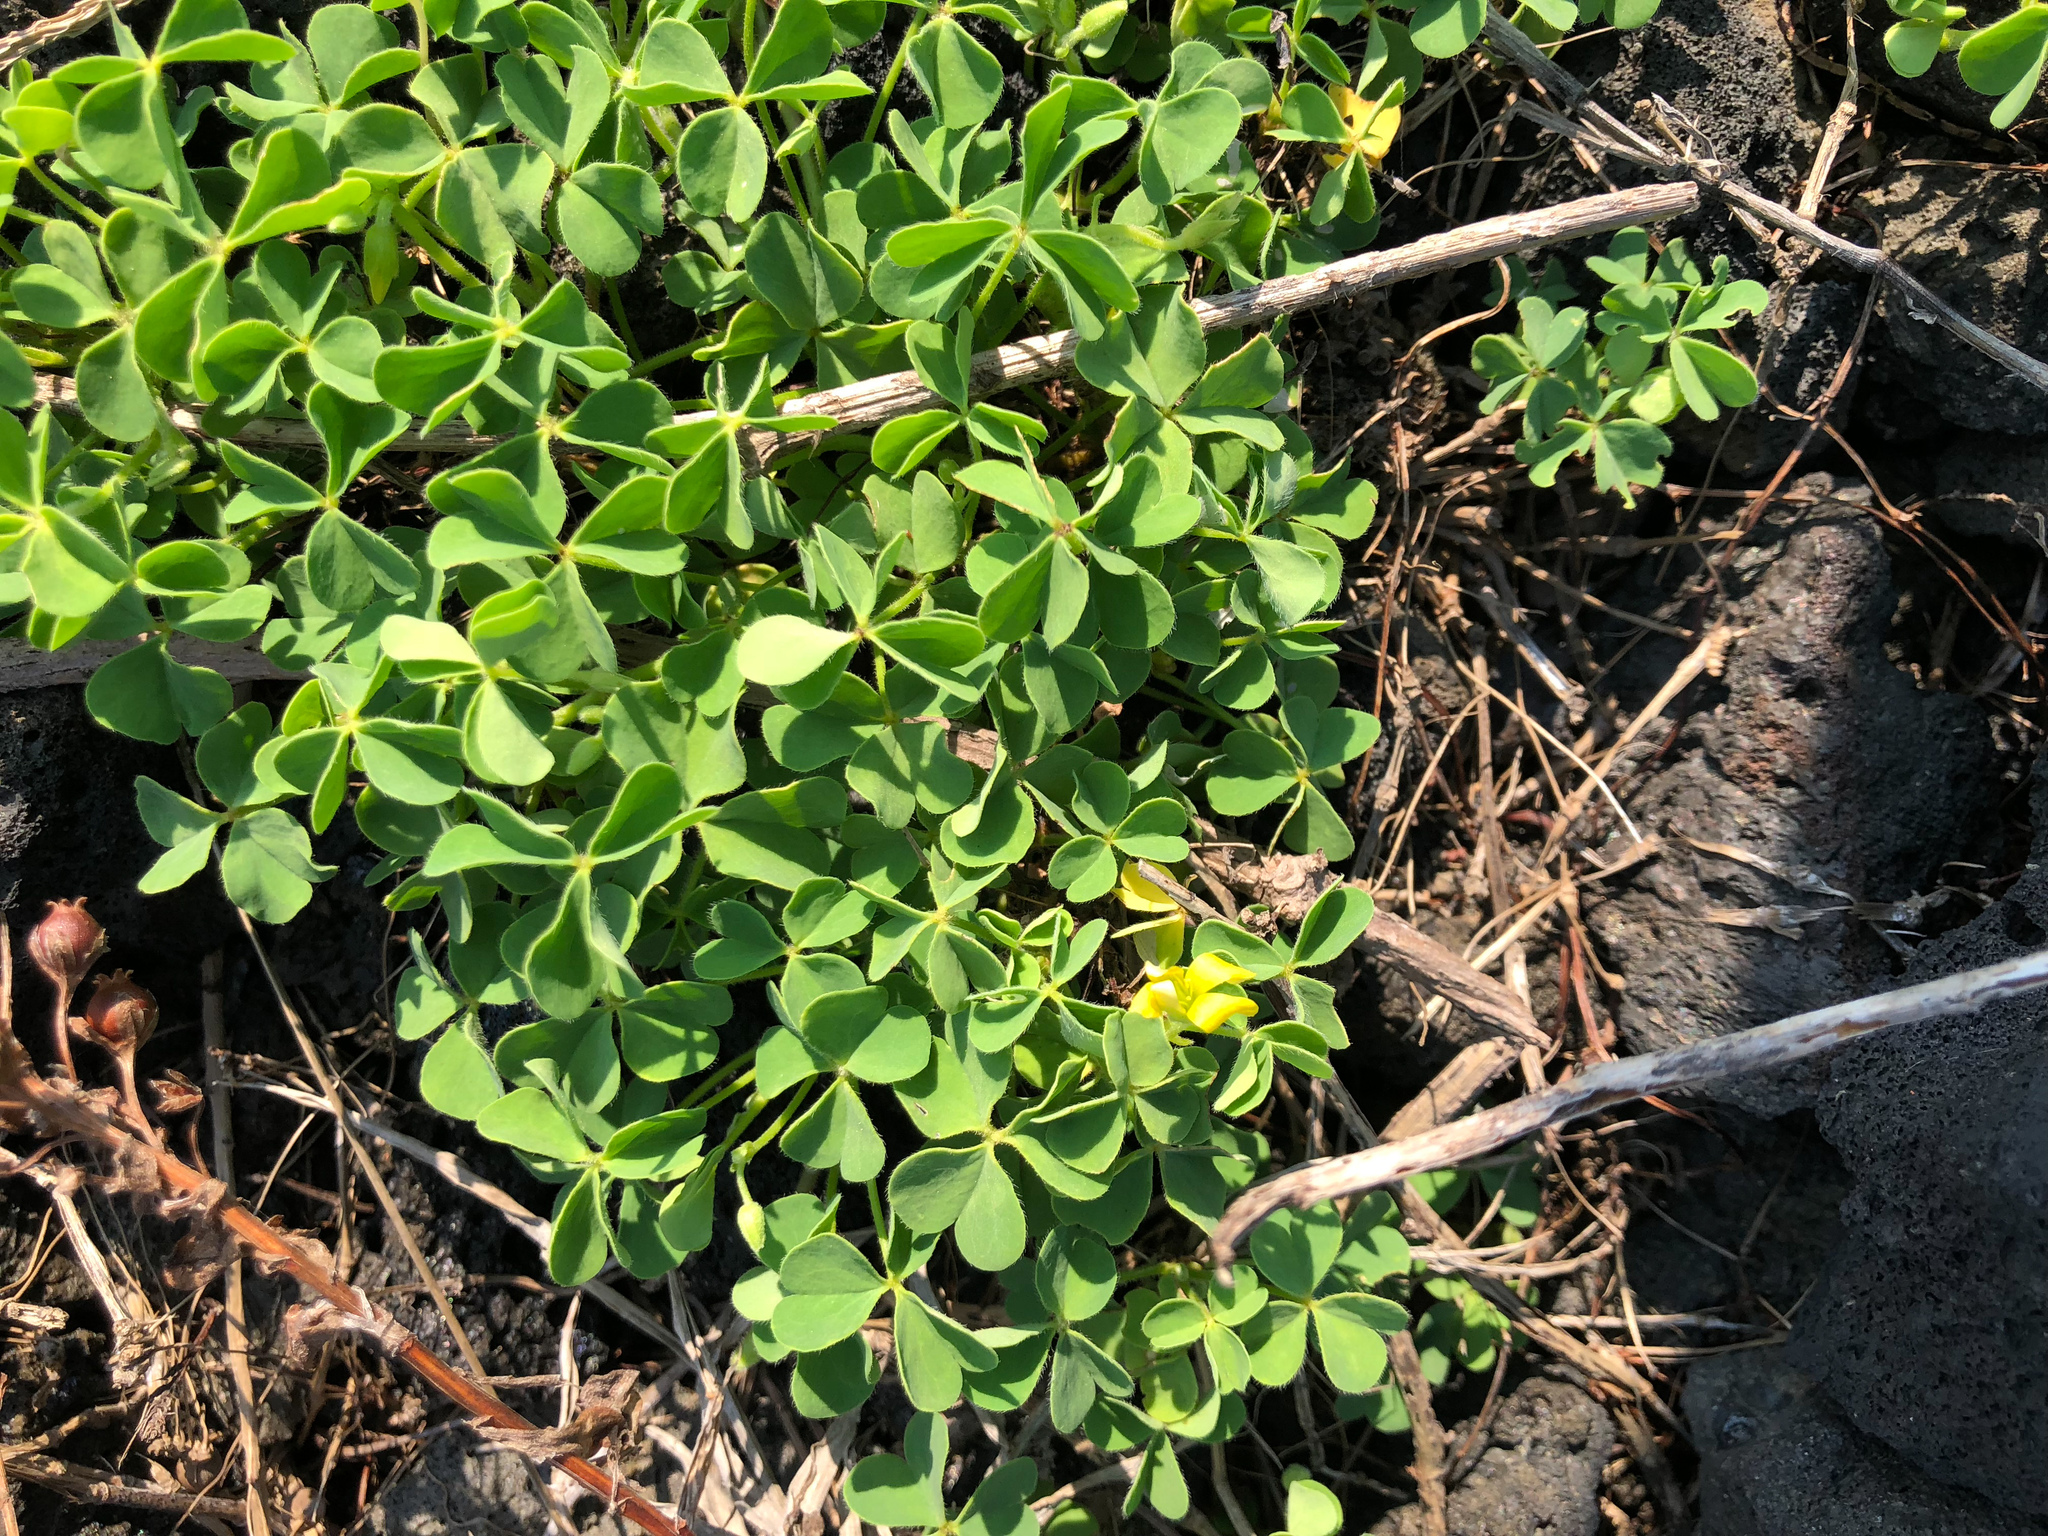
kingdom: Plantae
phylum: Tracheophyta
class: Magnoliopsida
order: Oxalidales
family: Oxalidaceae
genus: Oxalis
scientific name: Oxalis corniculata
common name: Procumbent yellow-sorrel
